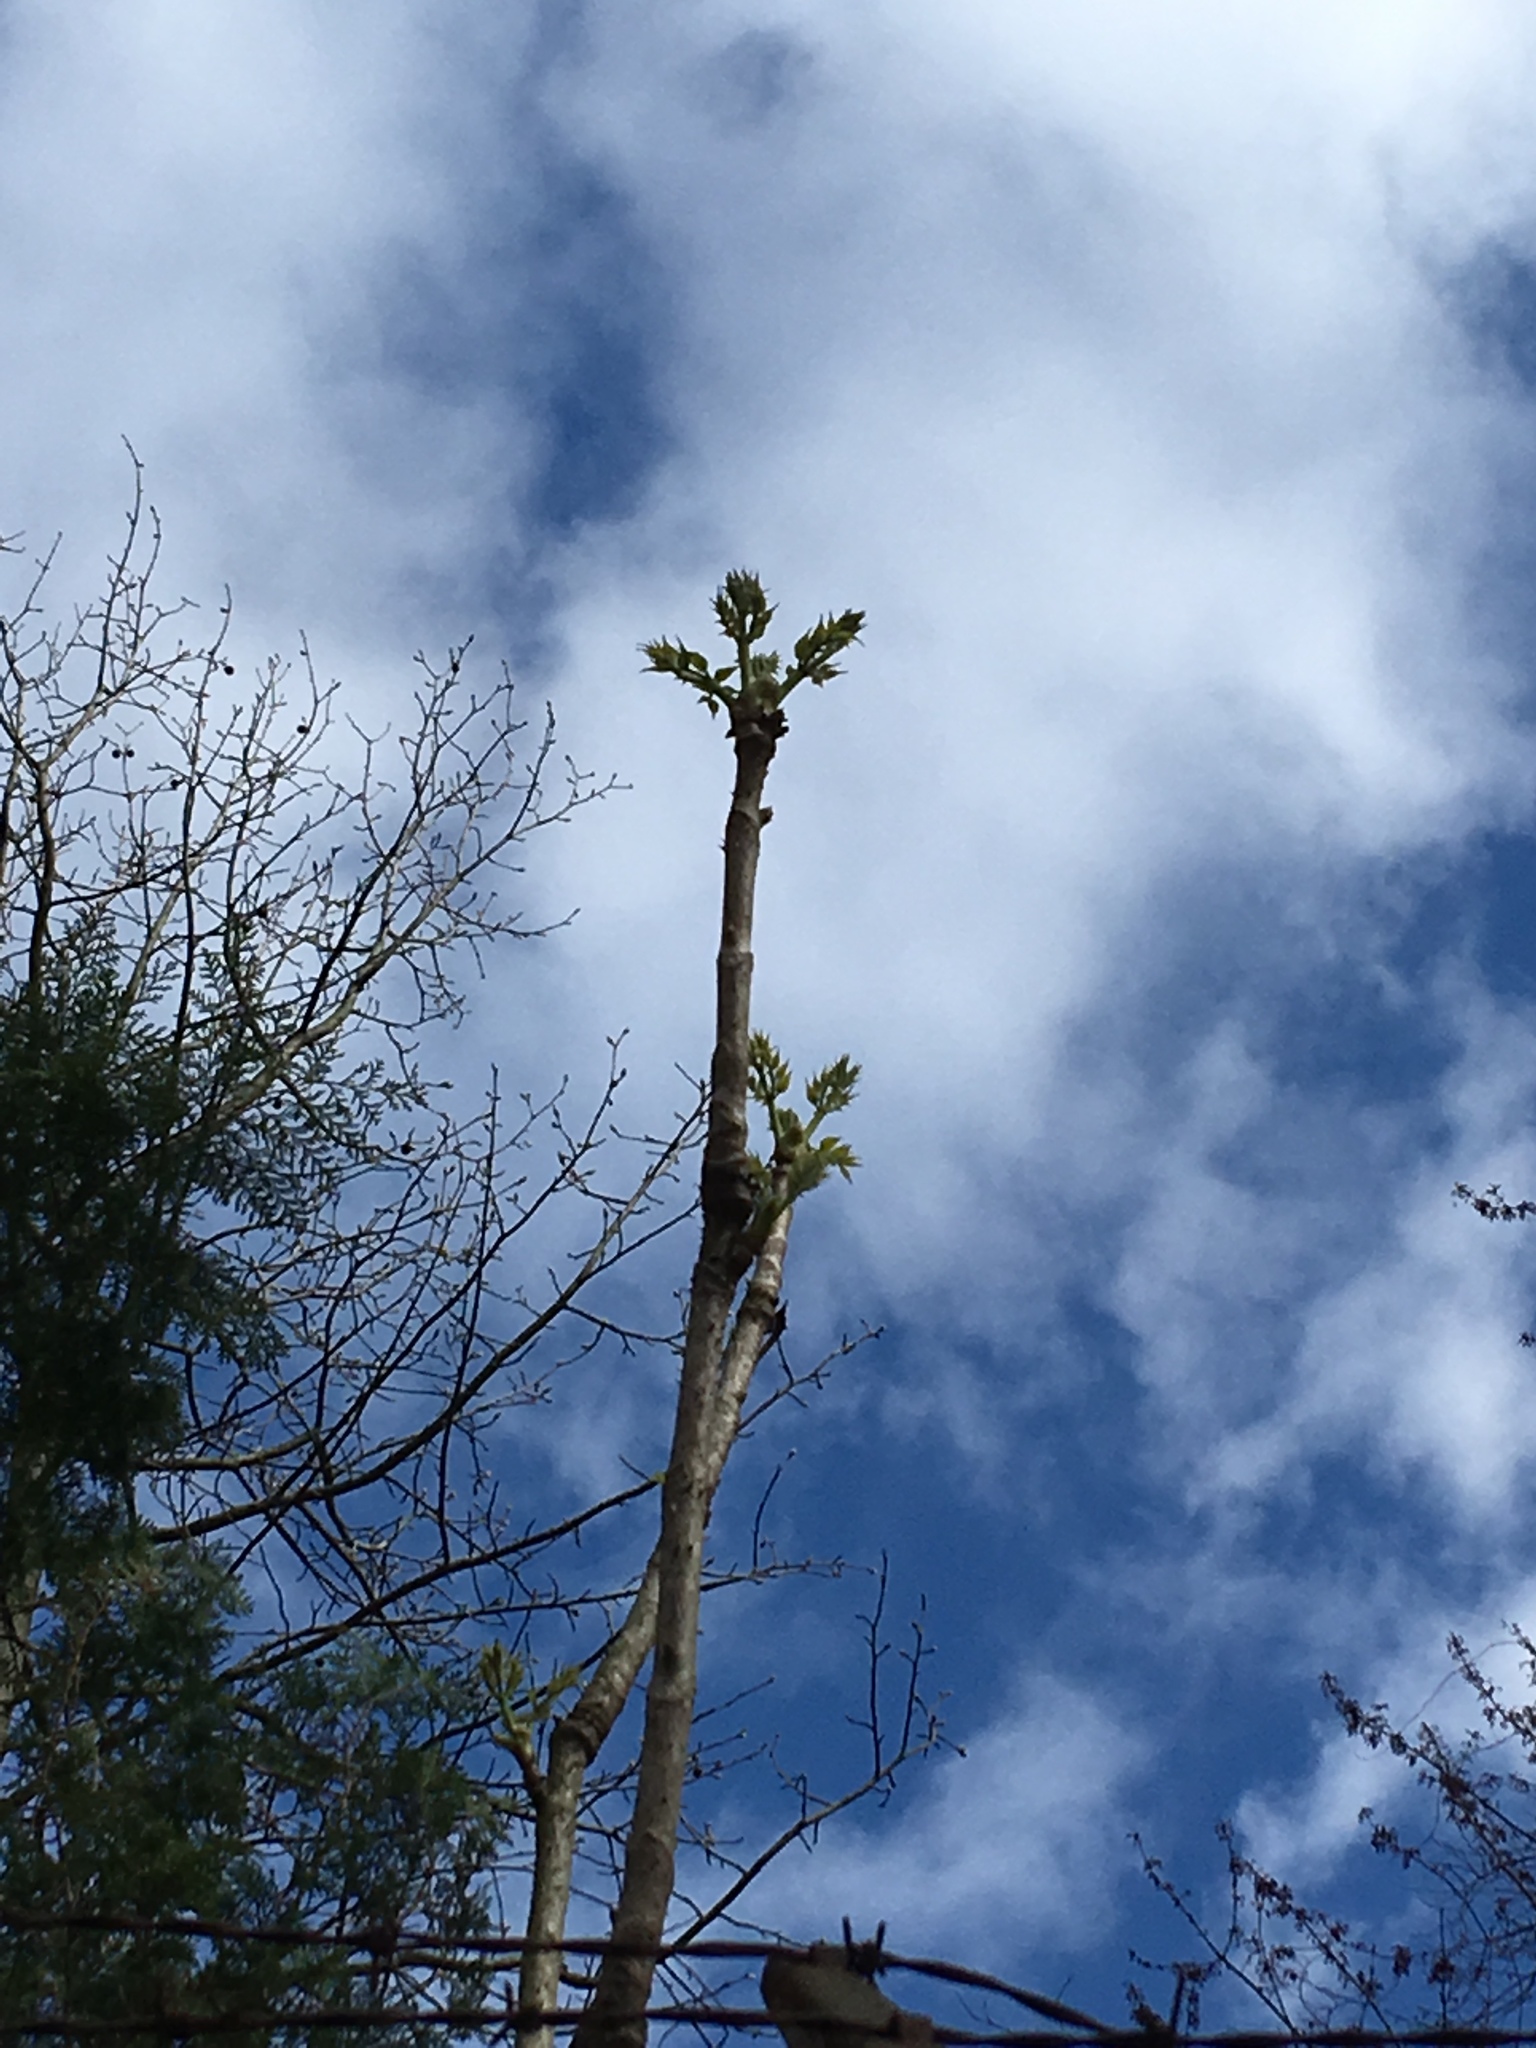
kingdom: Plantae
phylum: Tracheophyta
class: Magnoliopsida
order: Apiales
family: Araliaceae
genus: Aralia
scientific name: Aralia elata
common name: Japanese angelica-tree
